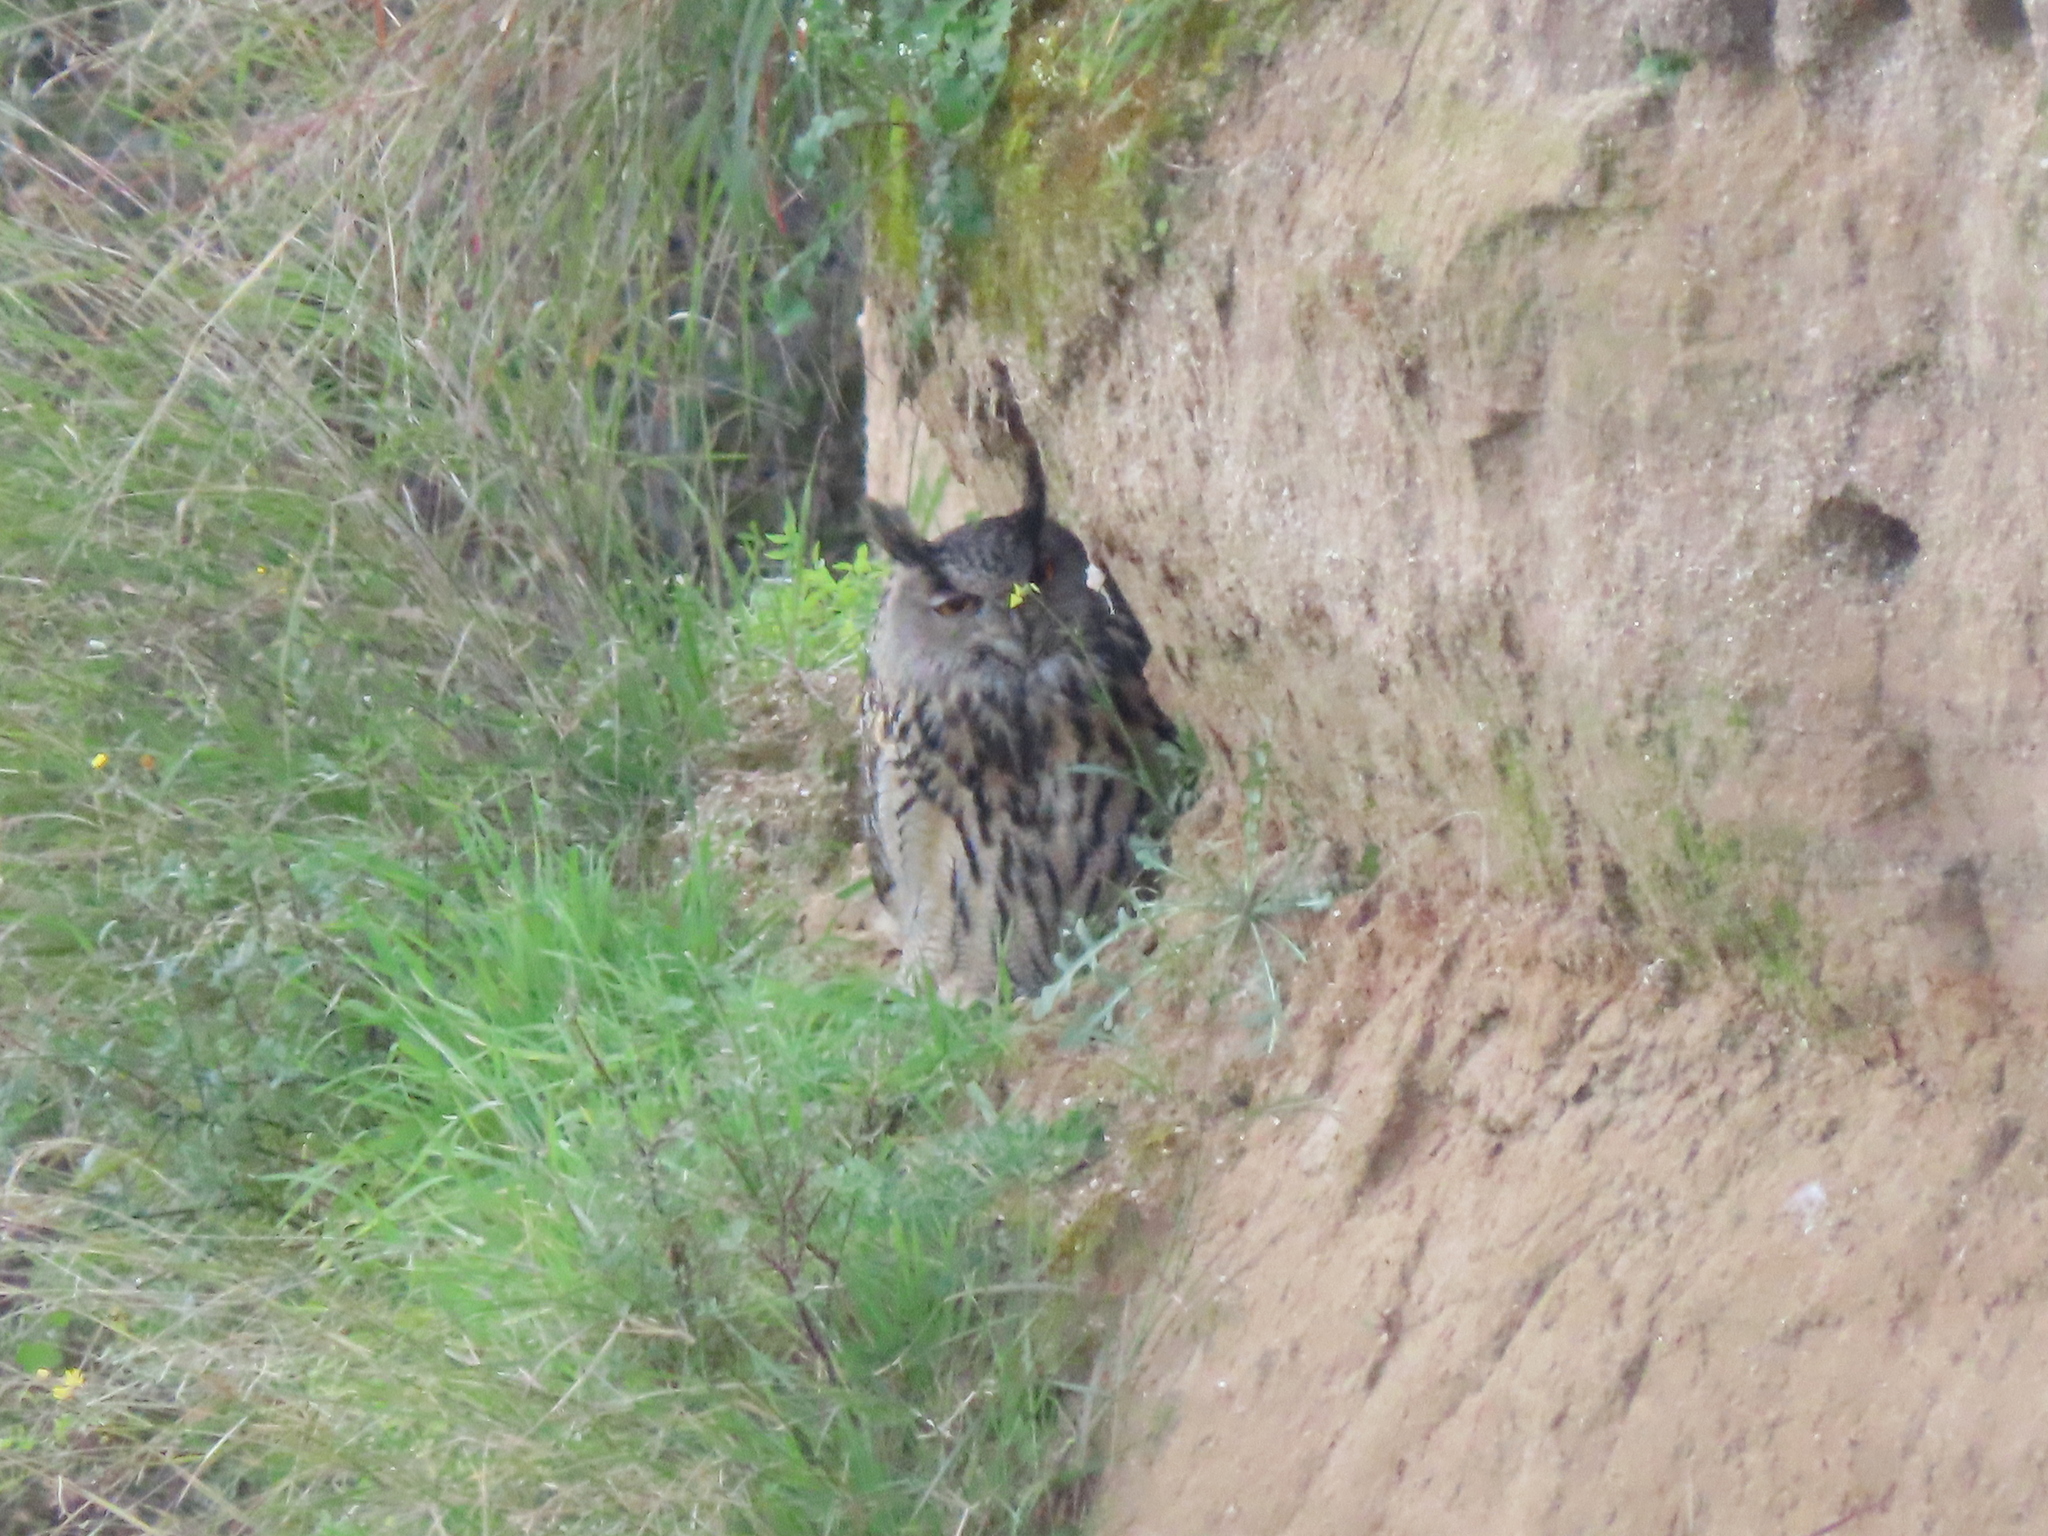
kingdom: Animalia
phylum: Chordata
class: Aves
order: Strigiformes
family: Strigidae
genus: Bubo
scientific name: Bubo bubo
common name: Eurasian eagle-owl
